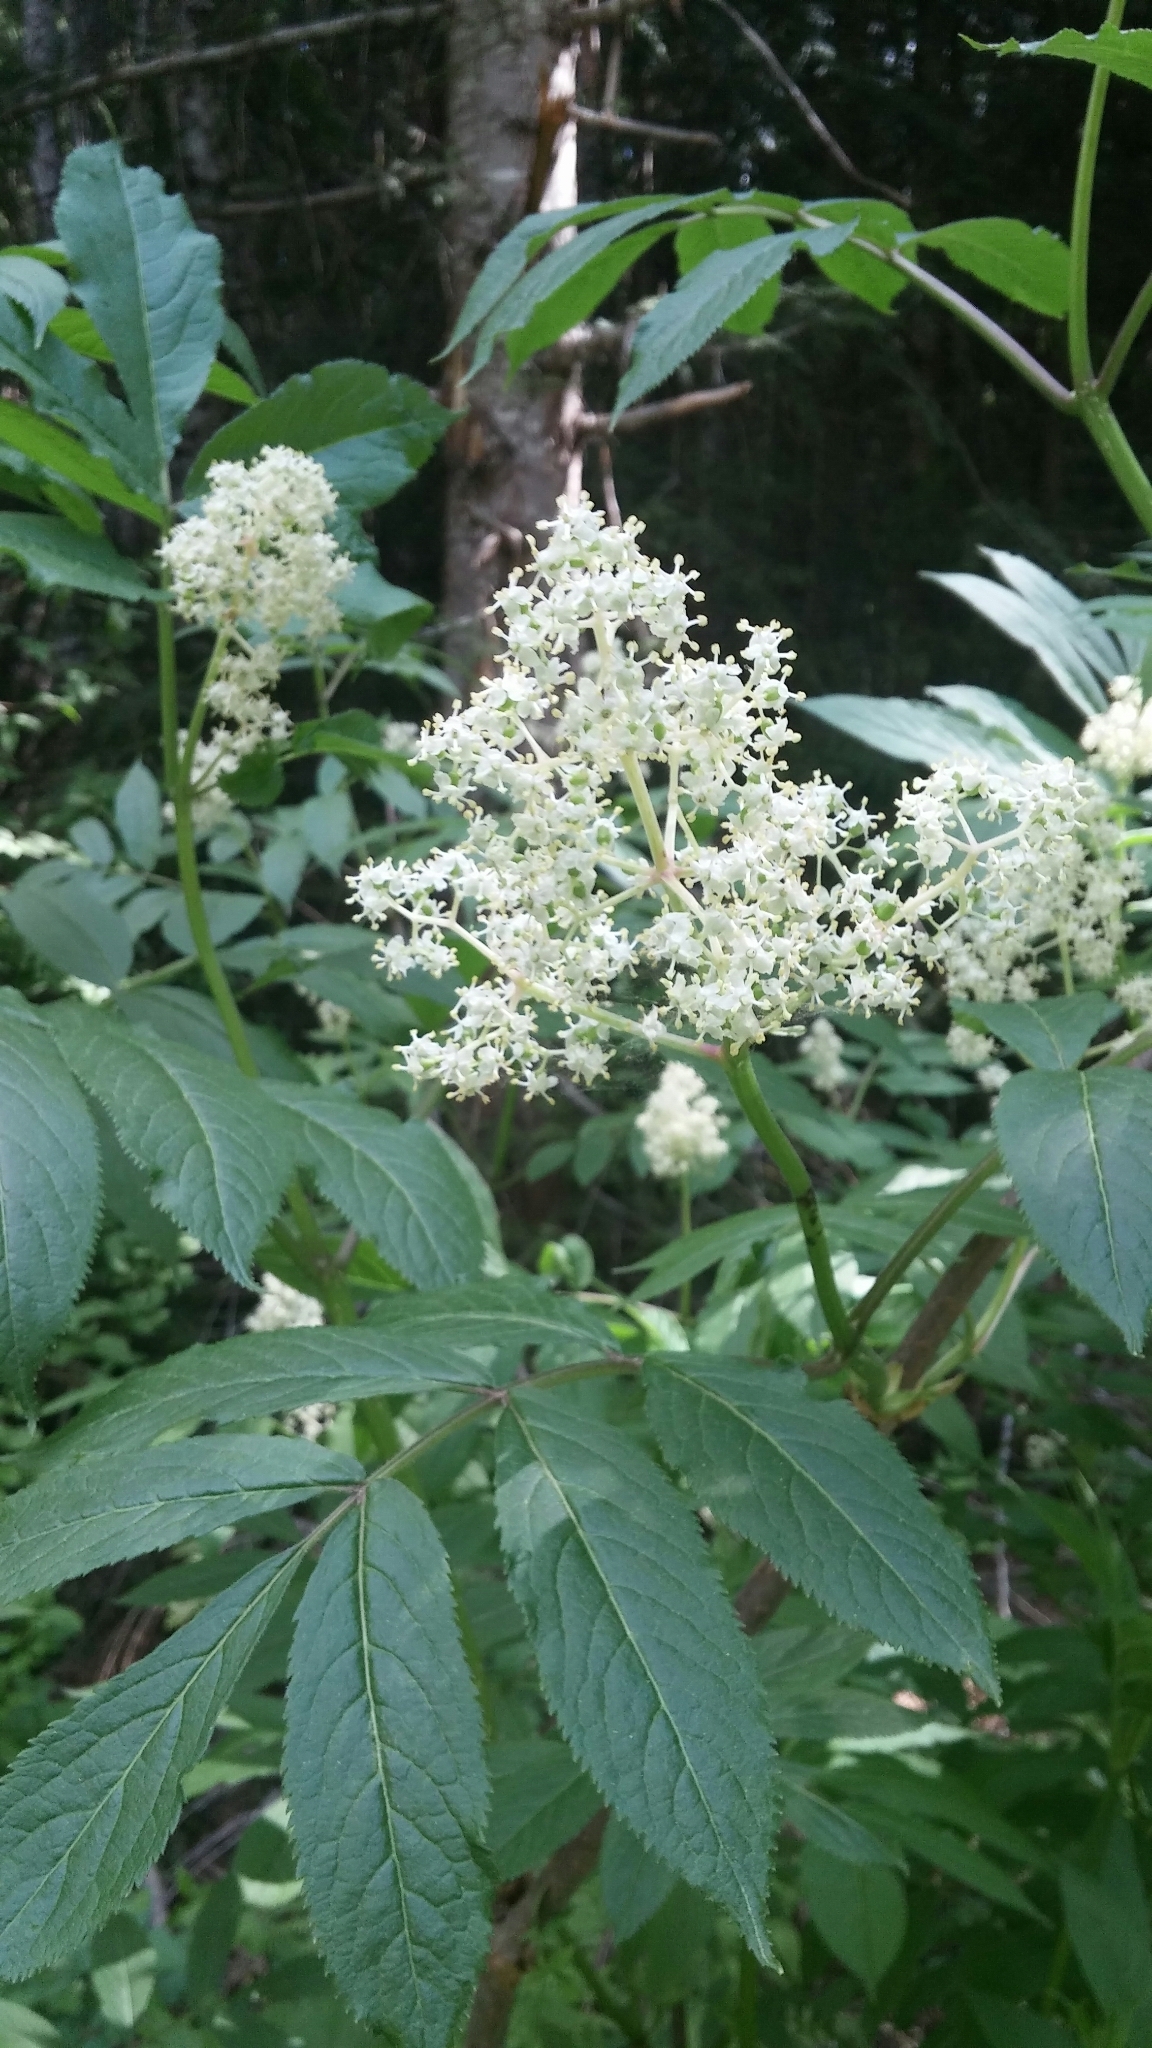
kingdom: Plantae
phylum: Tracheophyta
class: Magnoliopsida
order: Dipsacales
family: Viburnaceae
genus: Sambucus
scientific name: Sambucus racemosa
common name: Red-berried elder
